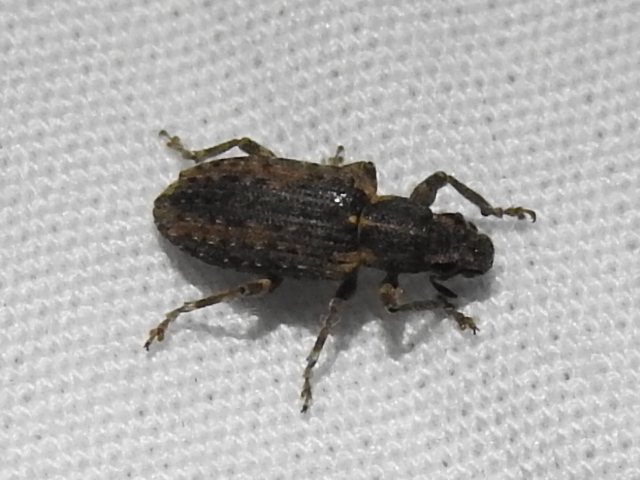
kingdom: Animalia
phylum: Arthropoda
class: Insecta
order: Coleoptera
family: Curculionidae
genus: Sitona
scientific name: Sitona hispidulus
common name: Clover weevil
